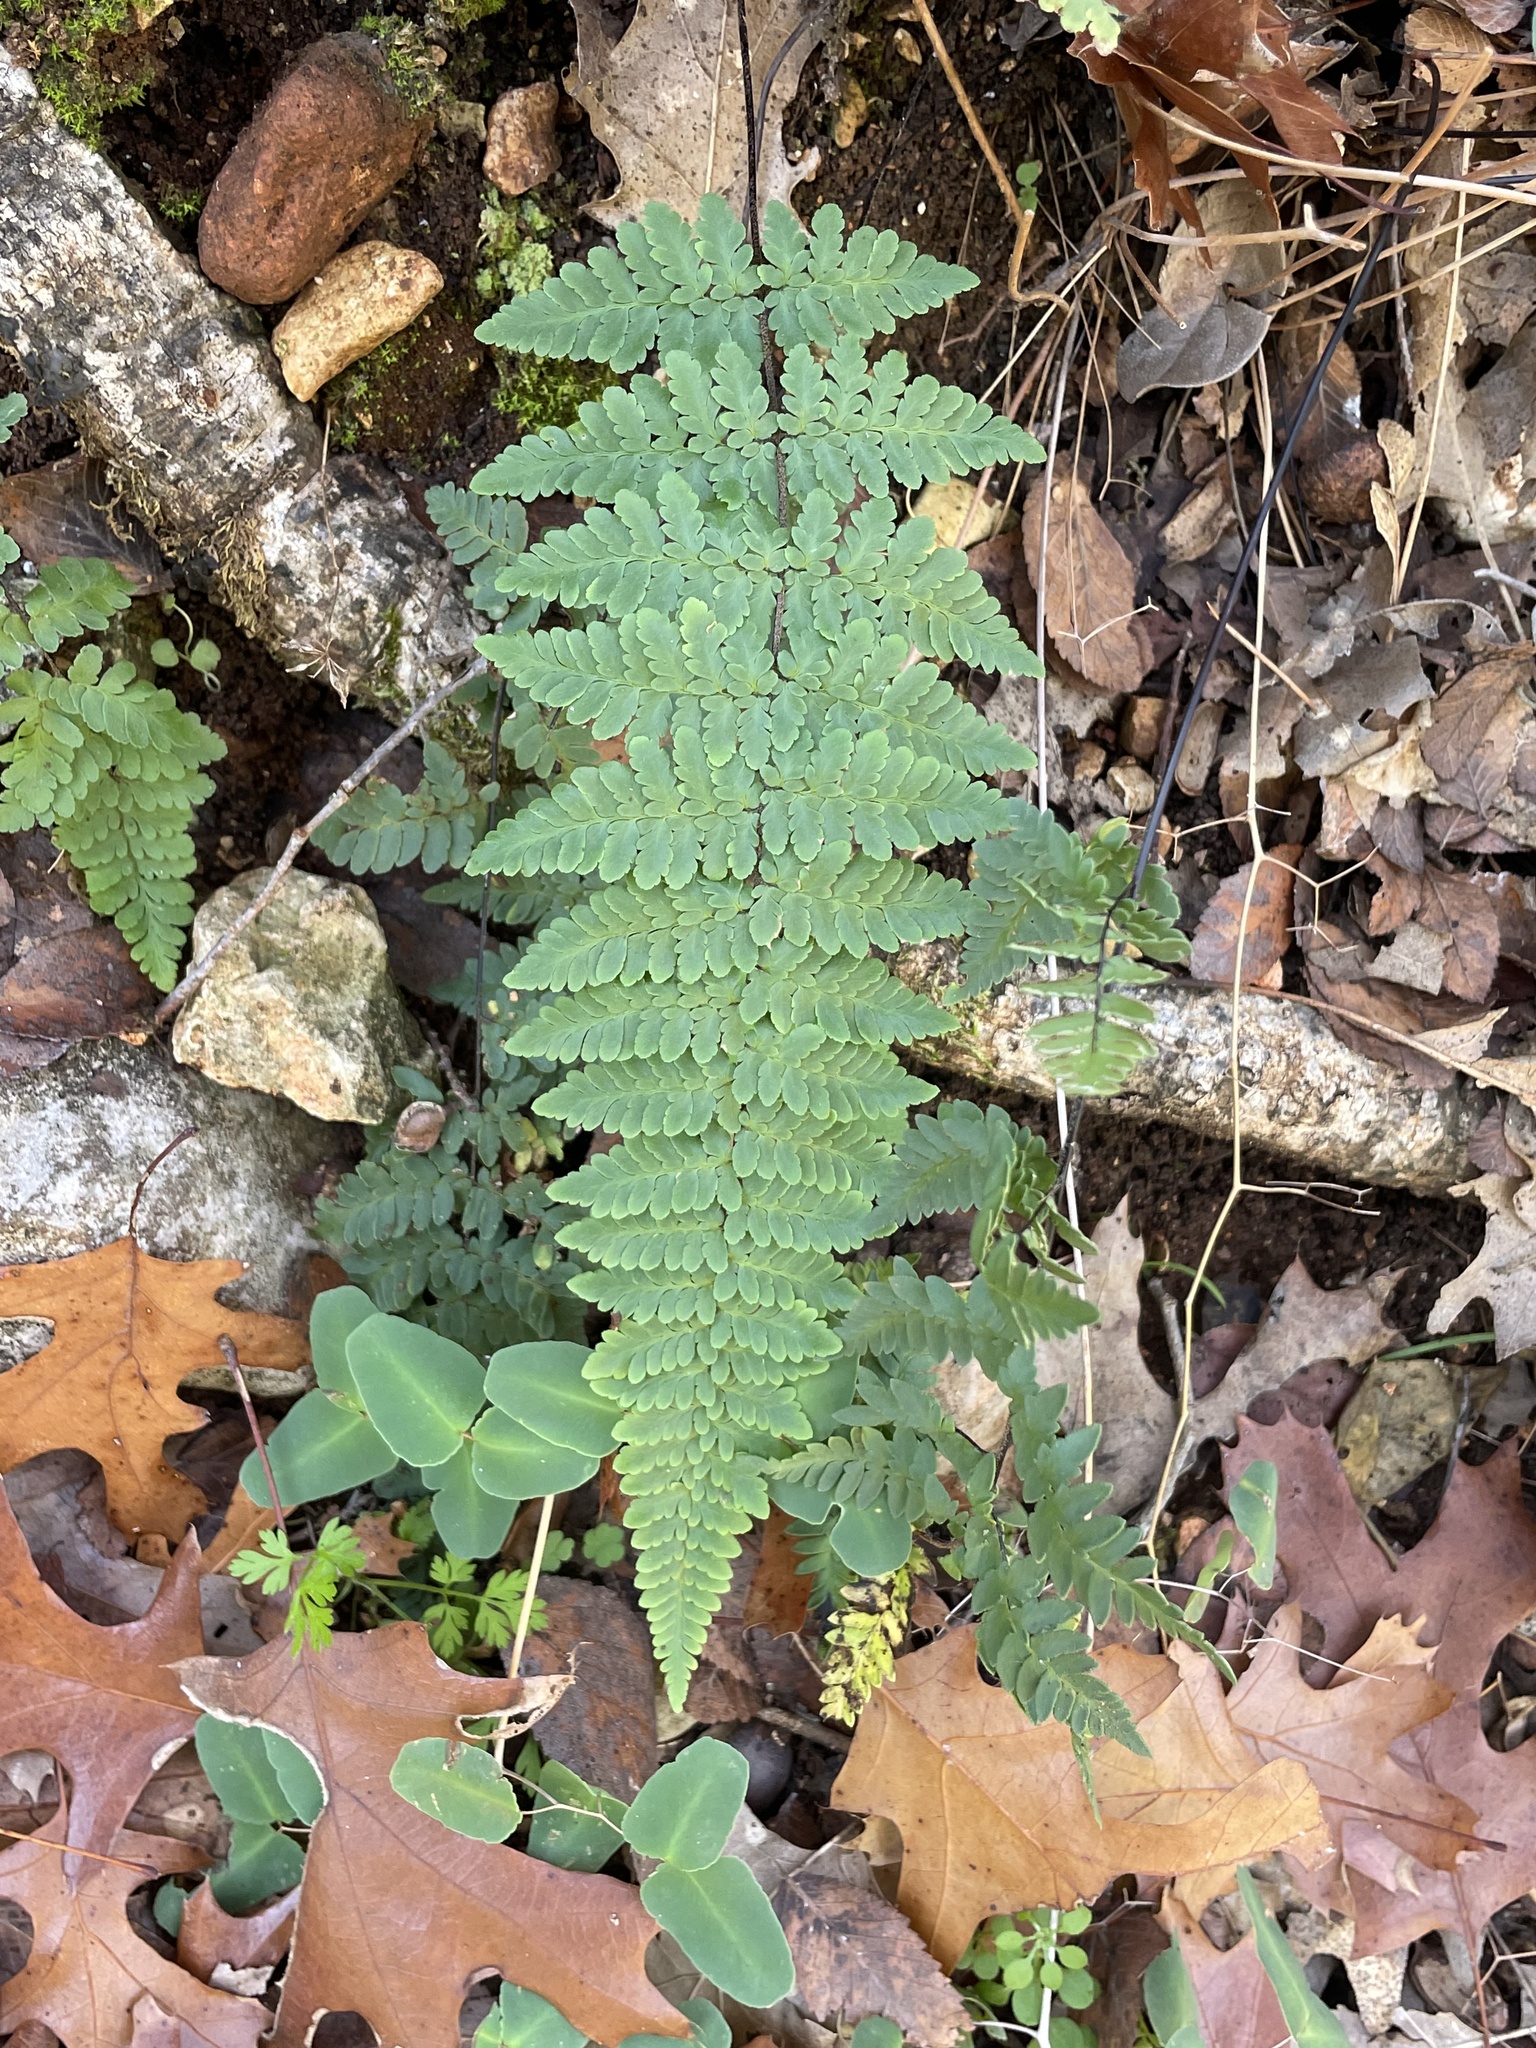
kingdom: Plantae
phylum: Tracheophyta
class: Polypodiopsida
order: Polypodiales
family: Pteridaceae
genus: Myriopteris
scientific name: Myriopteris alabamensis
